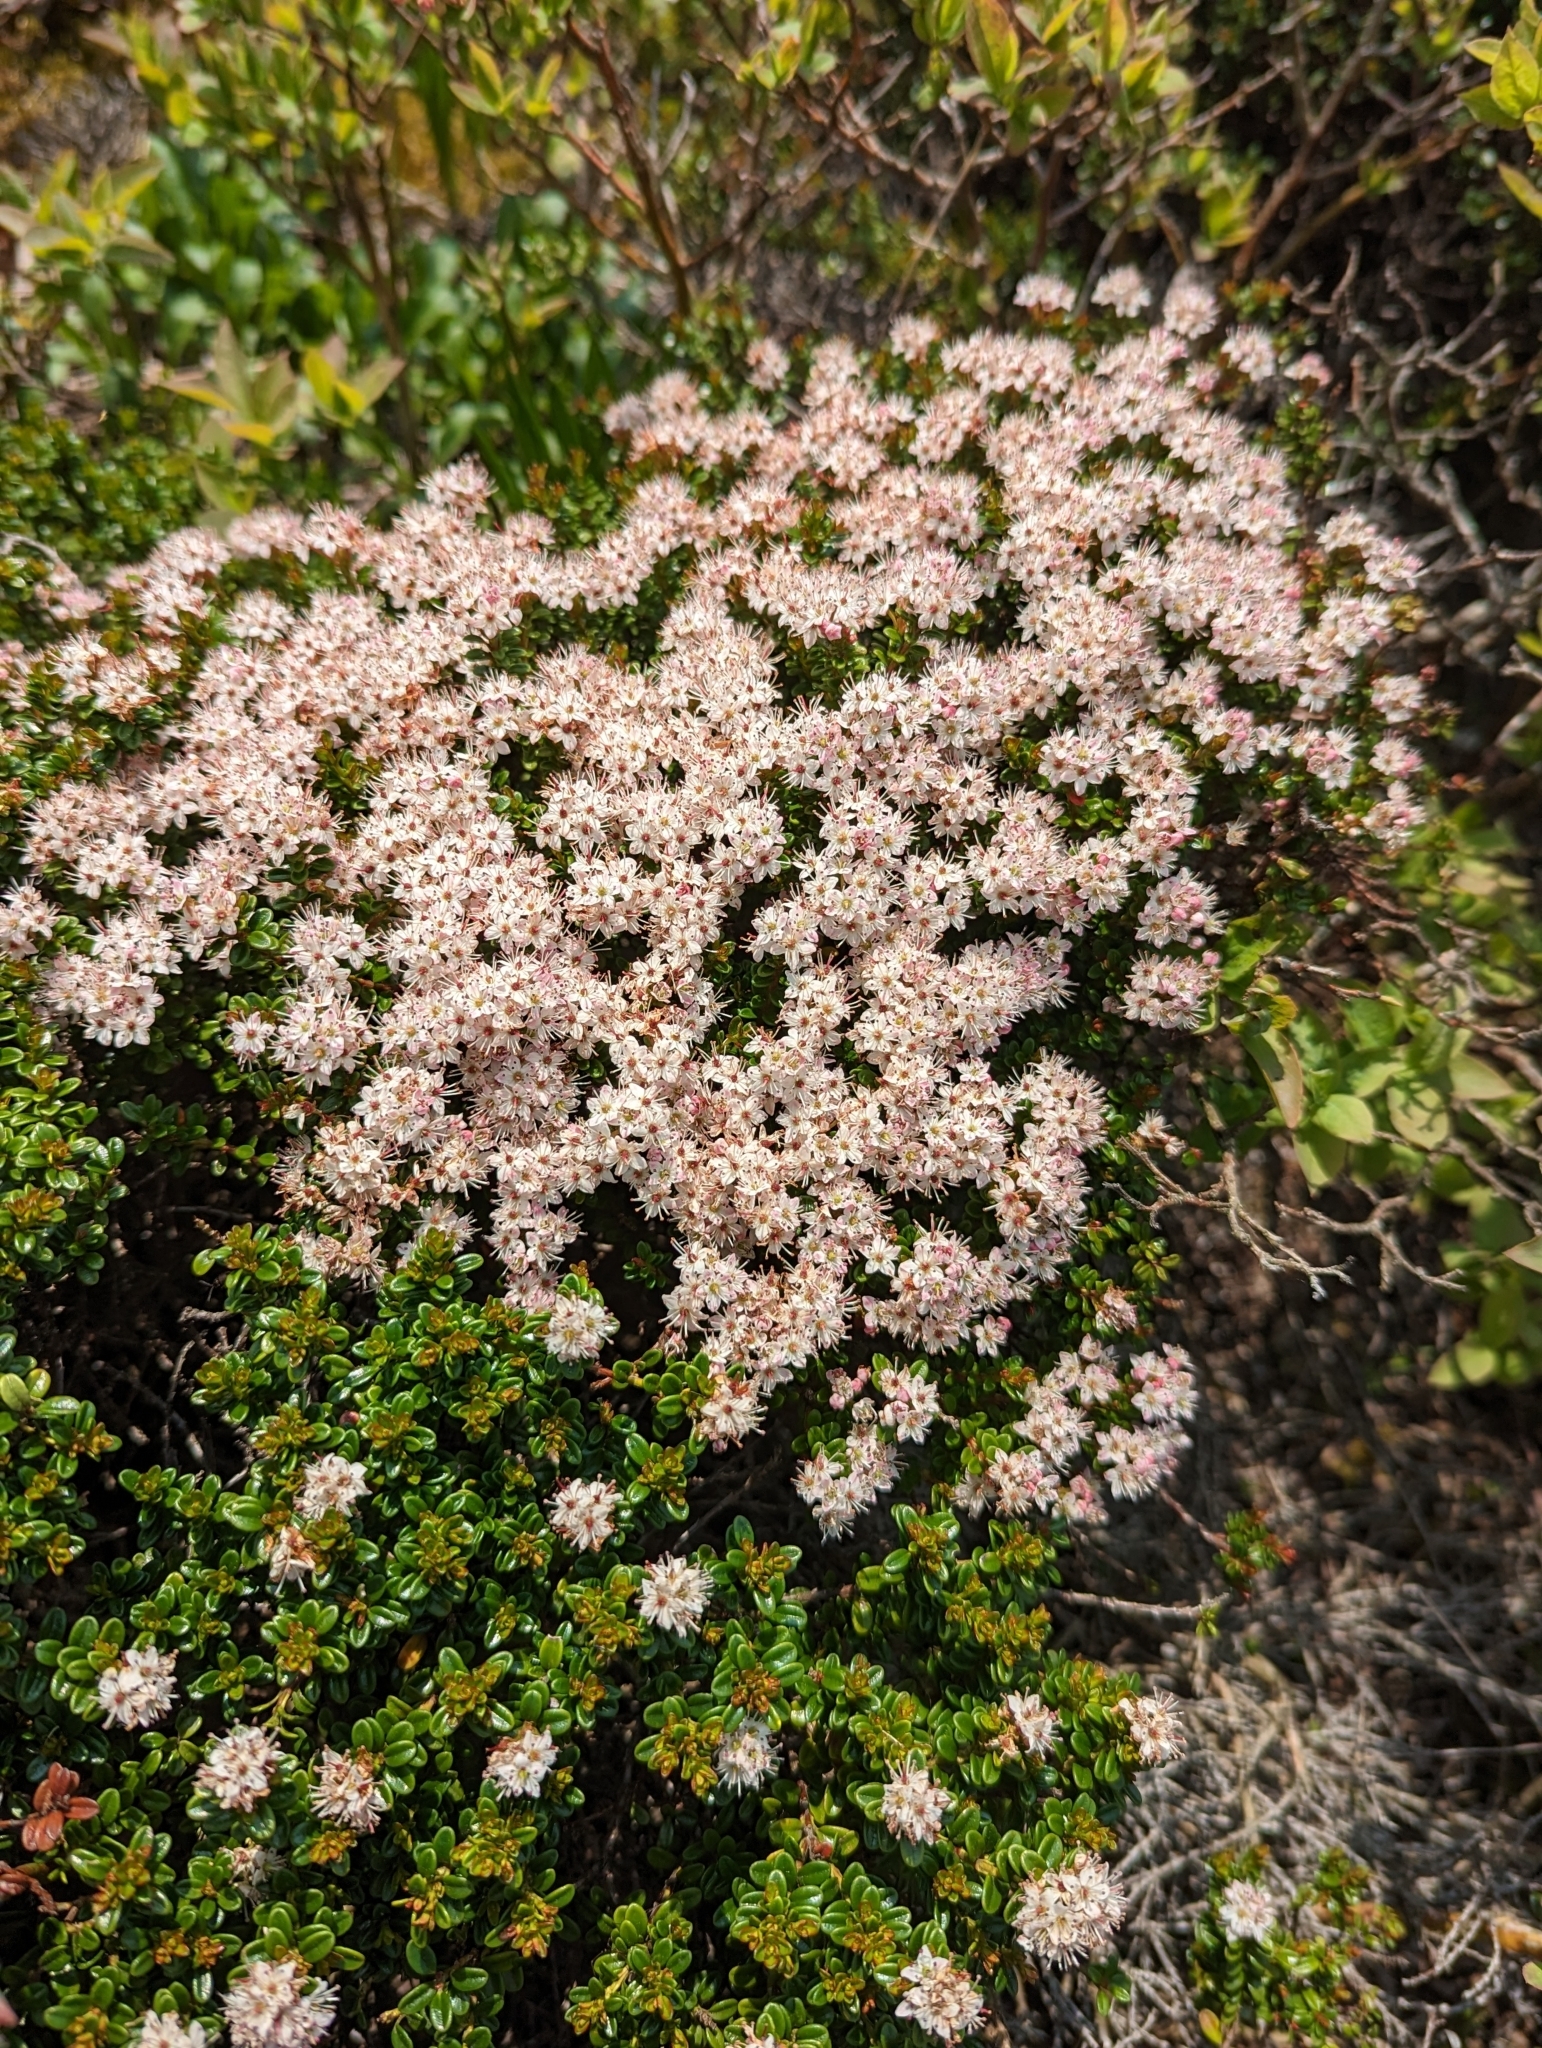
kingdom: Plantae
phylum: Tracheophyta
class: Magnoliopsida
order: Ericales
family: Ericaceae
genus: Kalmia
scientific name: Kalmia buxifolia
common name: Sandmyrtle
